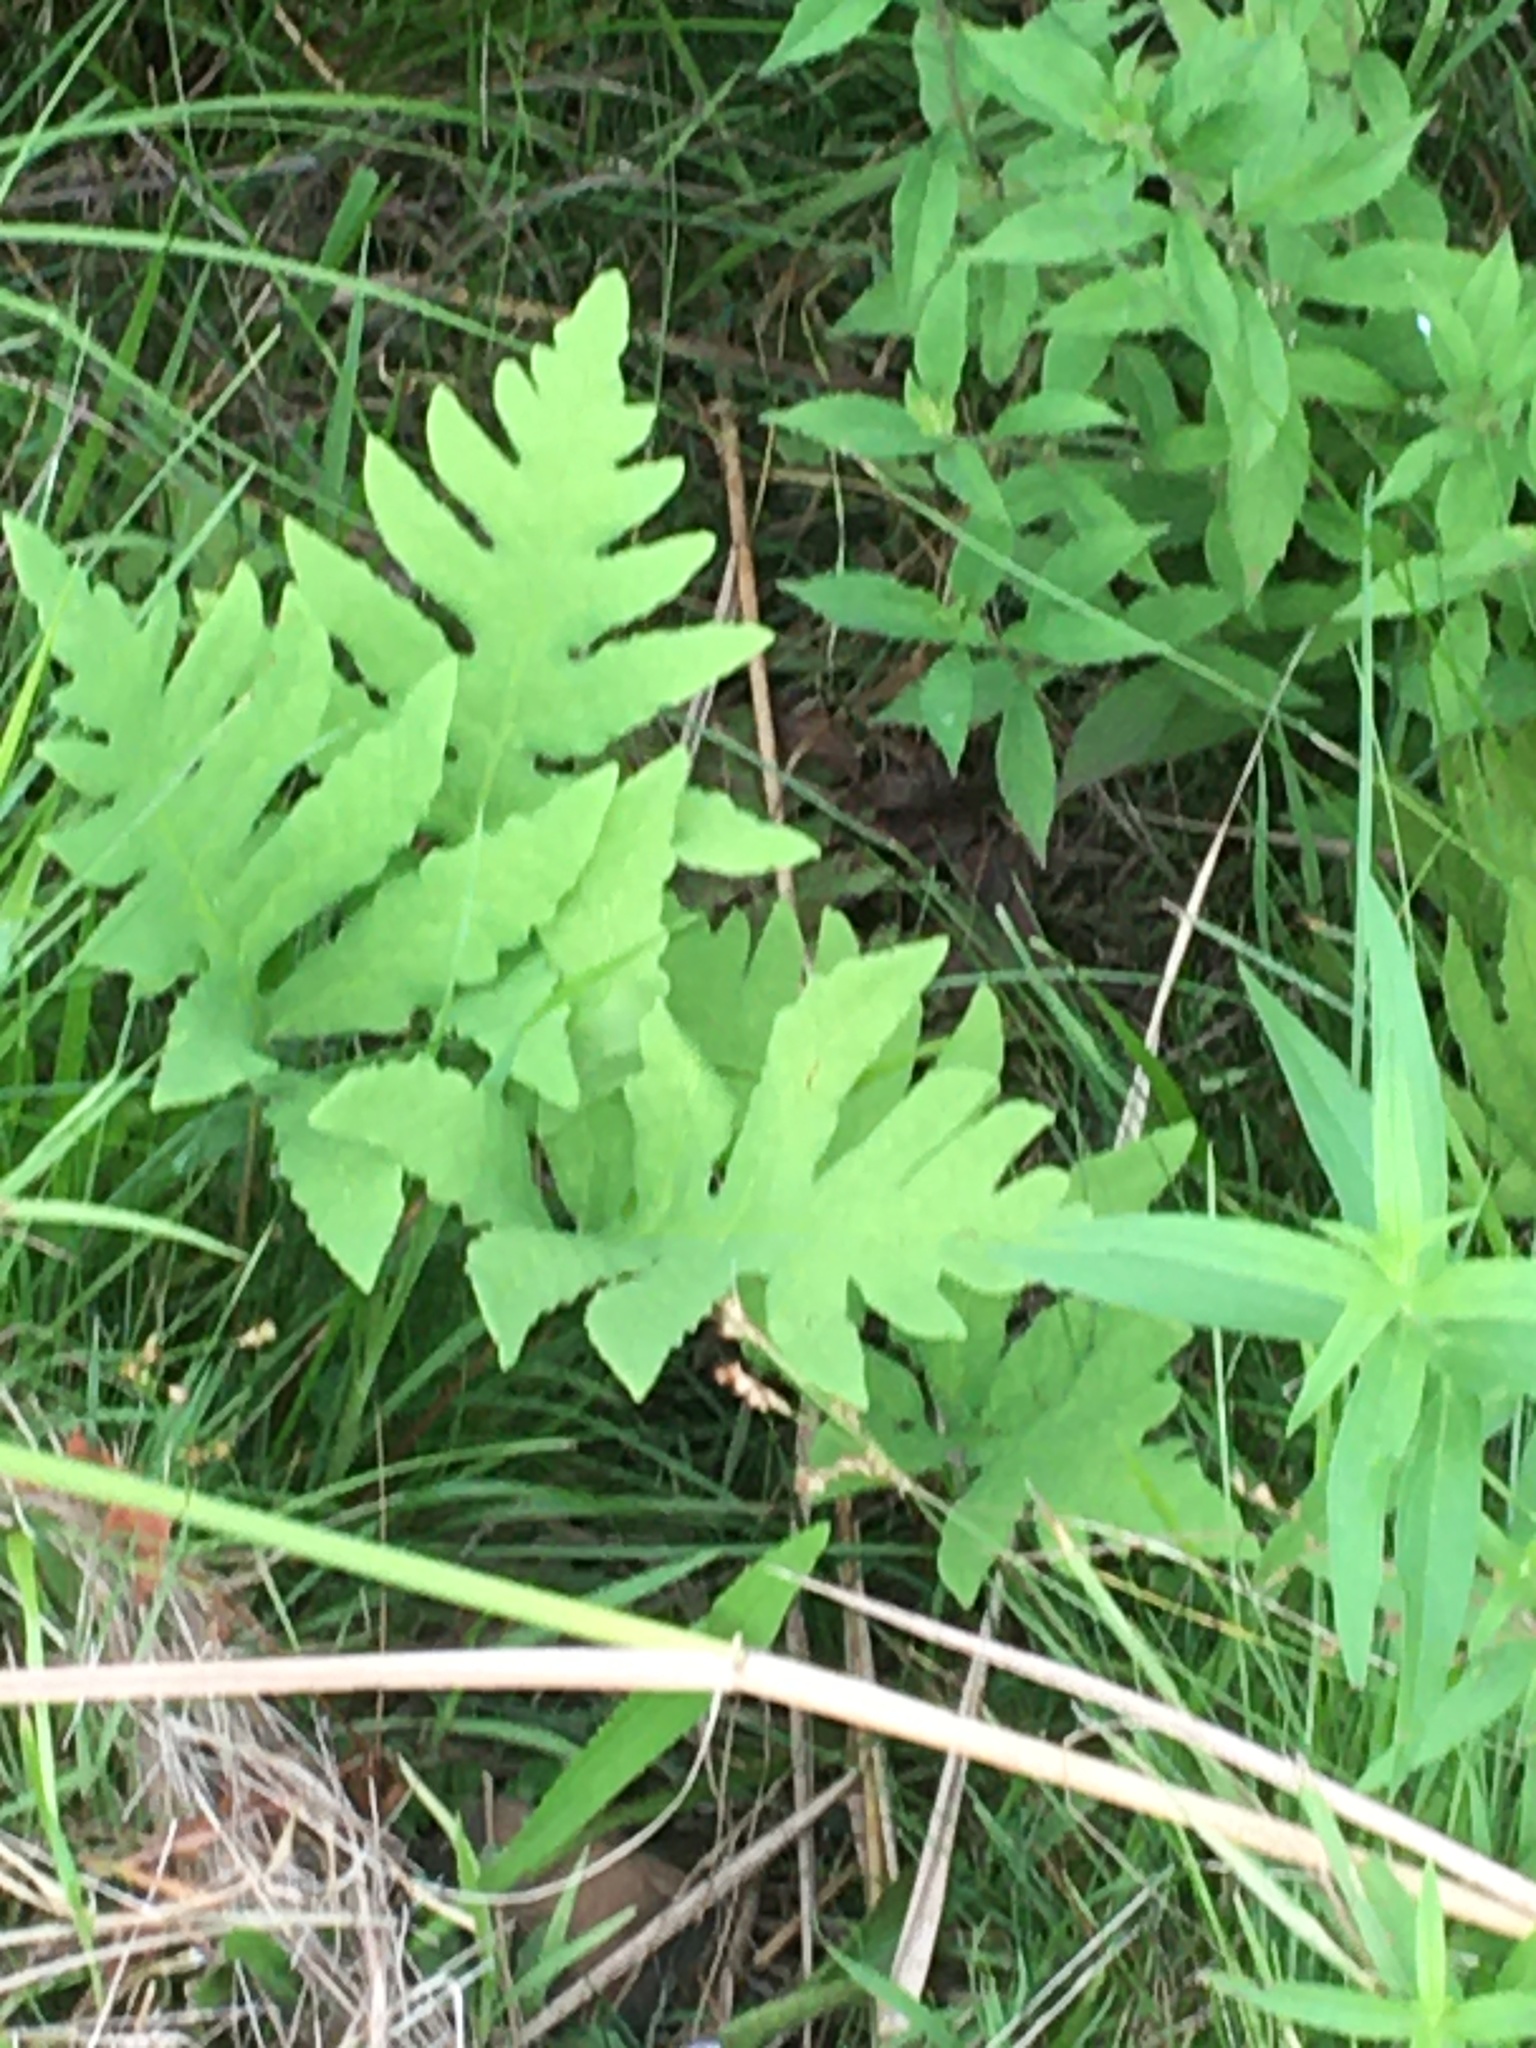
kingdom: Plantae
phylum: Tracheophyta
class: Polypodiopsida
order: Polypodiales
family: Onocleaceae
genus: Onoclea
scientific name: Onoclea sensibilis
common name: Sensitive fern
